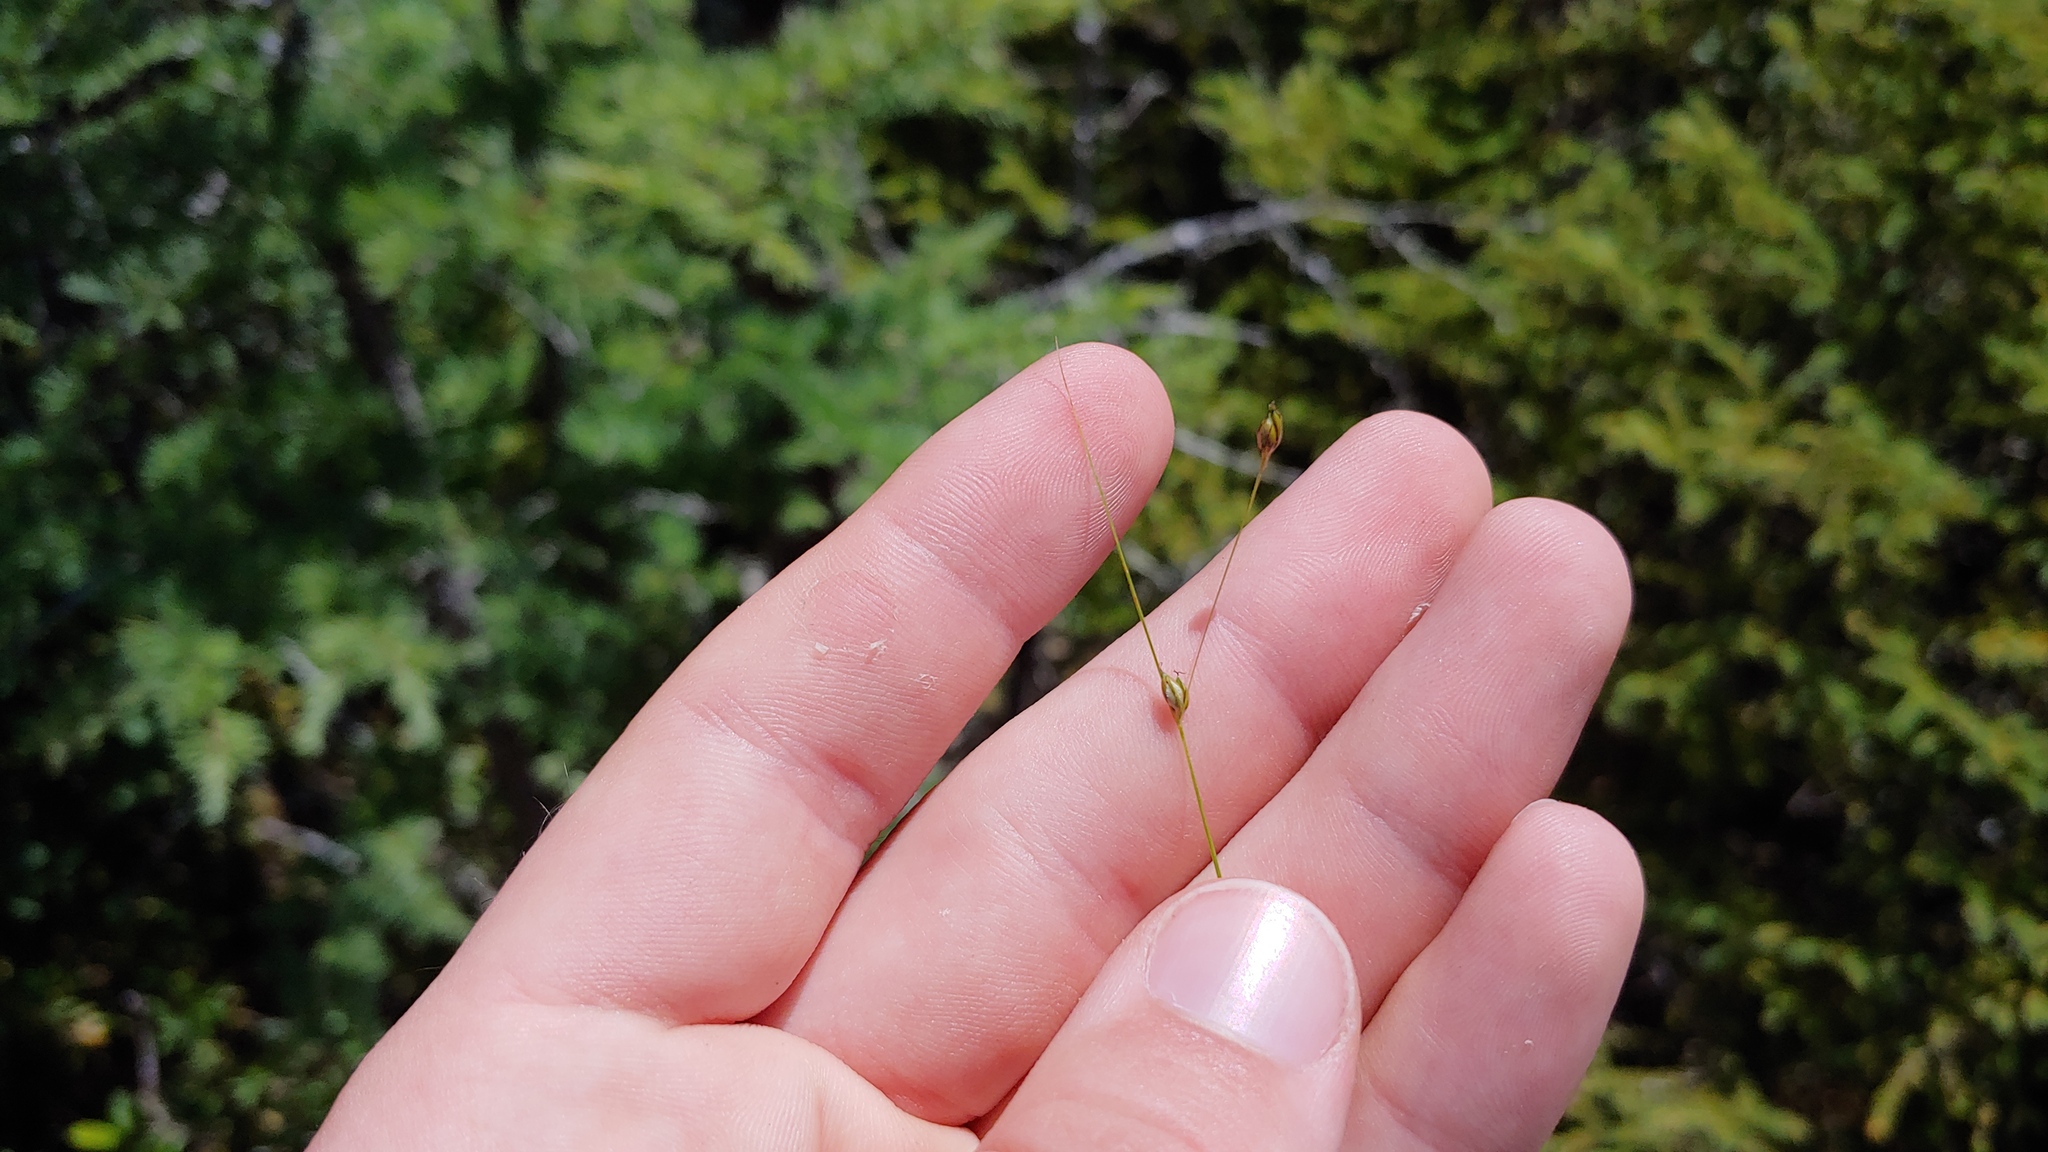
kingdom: Plantae
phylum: Tracheophyta
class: Liliopsida
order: Poales
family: Cyperaceae
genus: Carex
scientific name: Carex trisperma
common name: Three-seeded sedge
